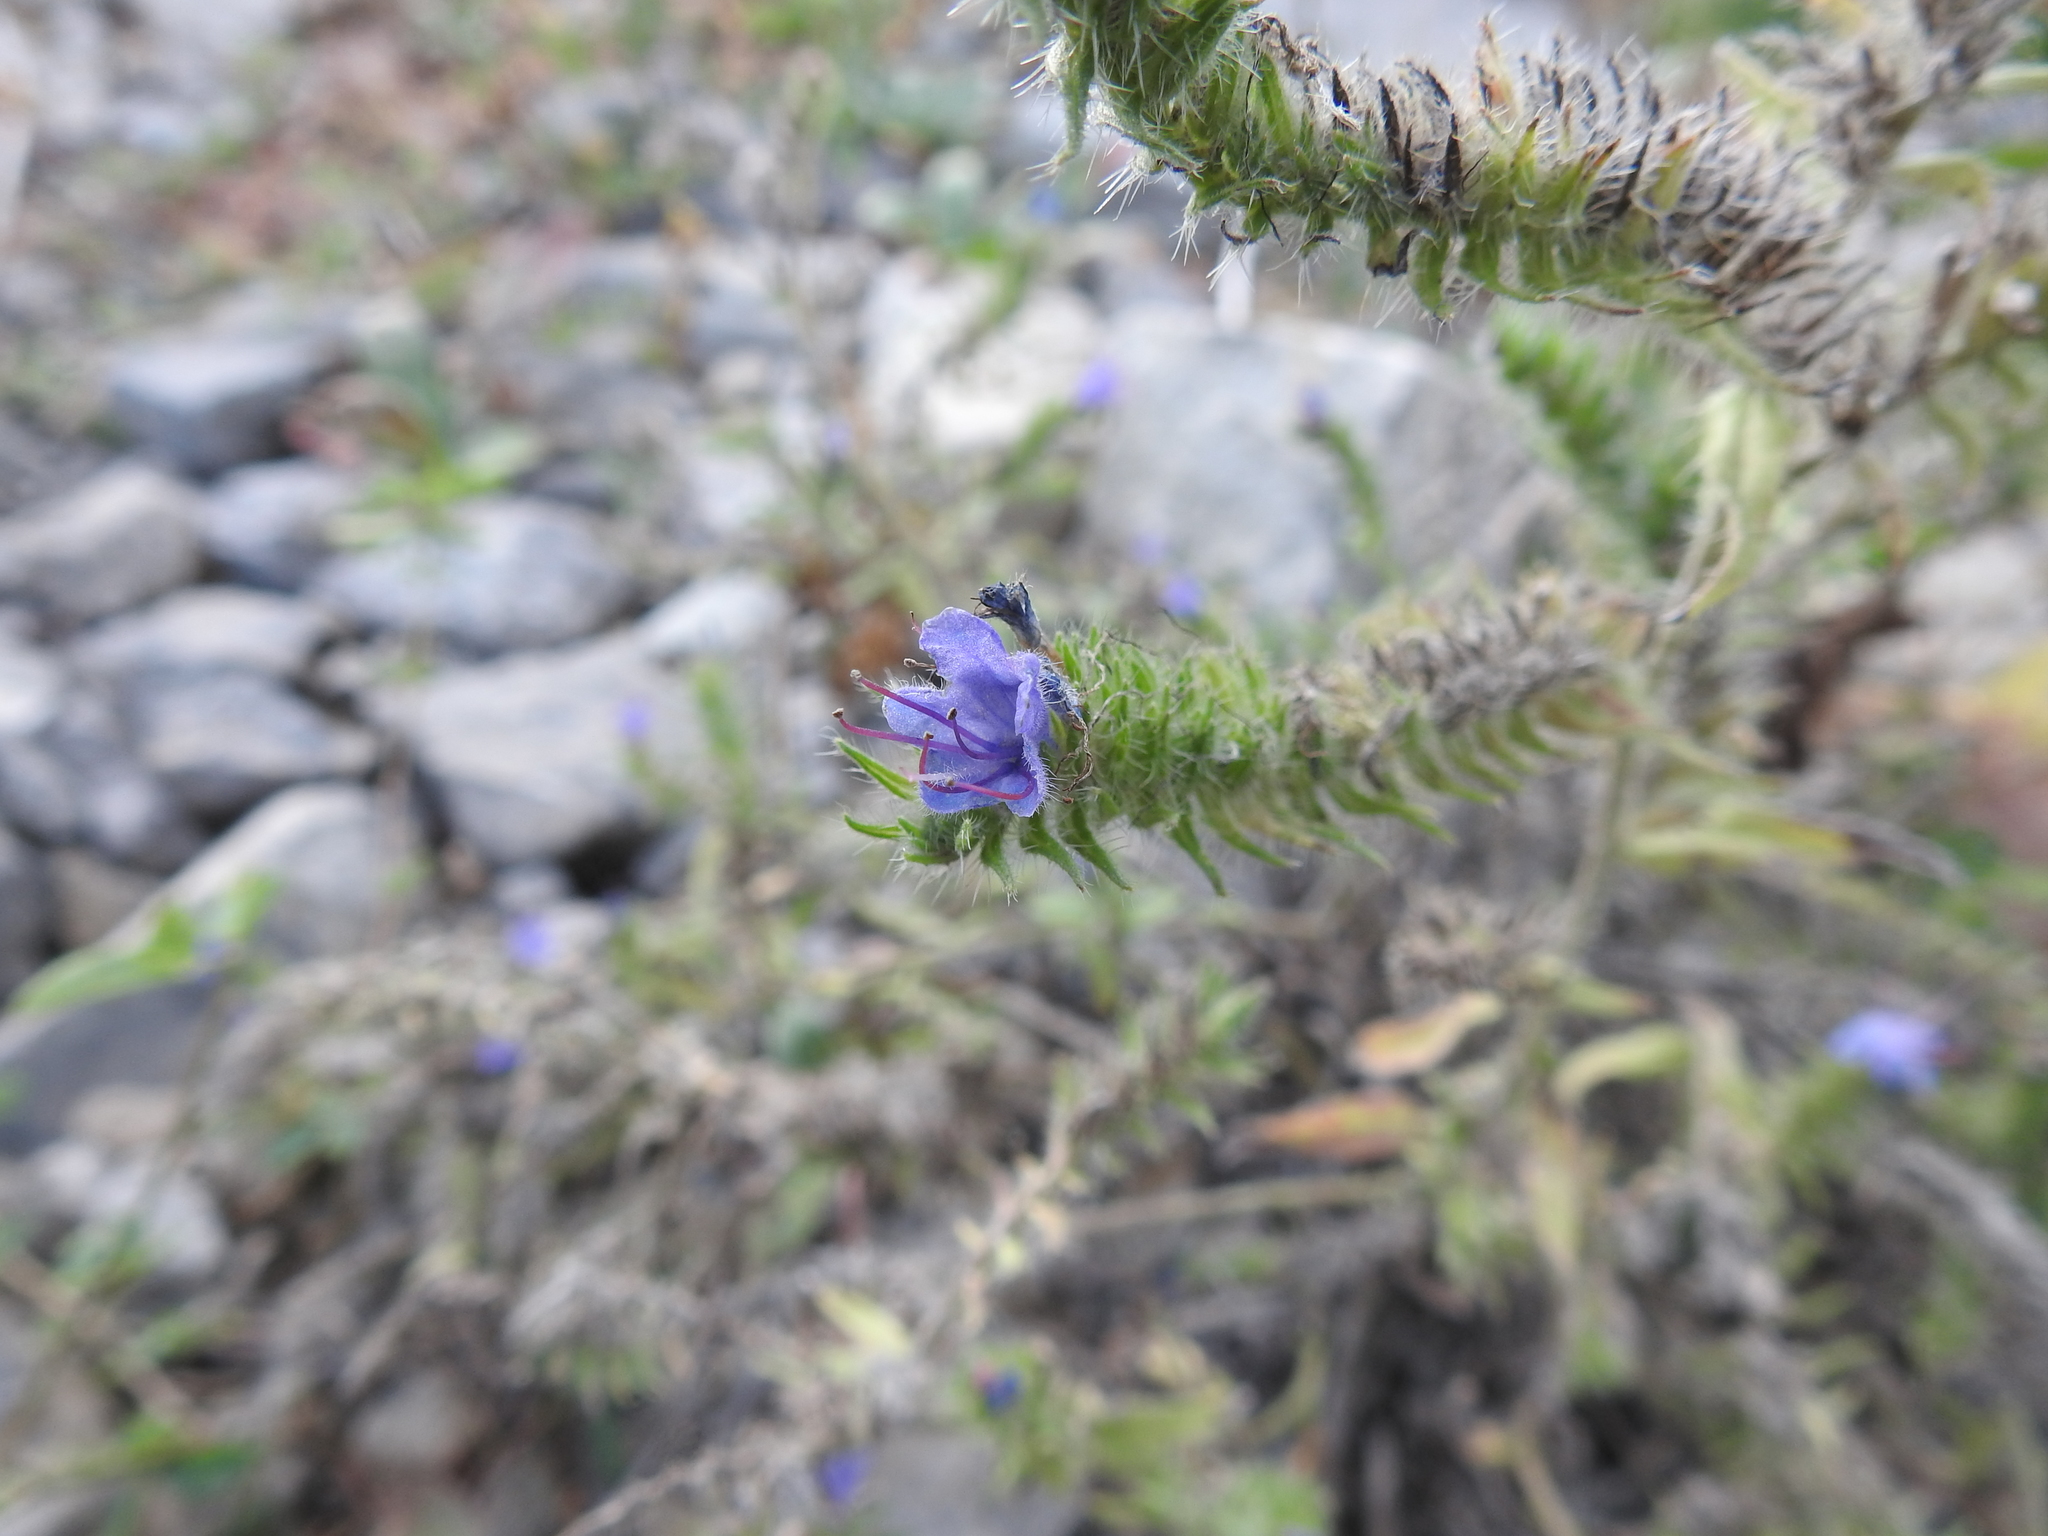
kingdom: Plantae
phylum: Tracheophyta
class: Magnoliopsida
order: Boraginales
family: Boraginaceae
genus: Echium
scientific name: Echium vulgare
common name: Common viper's bugloss
